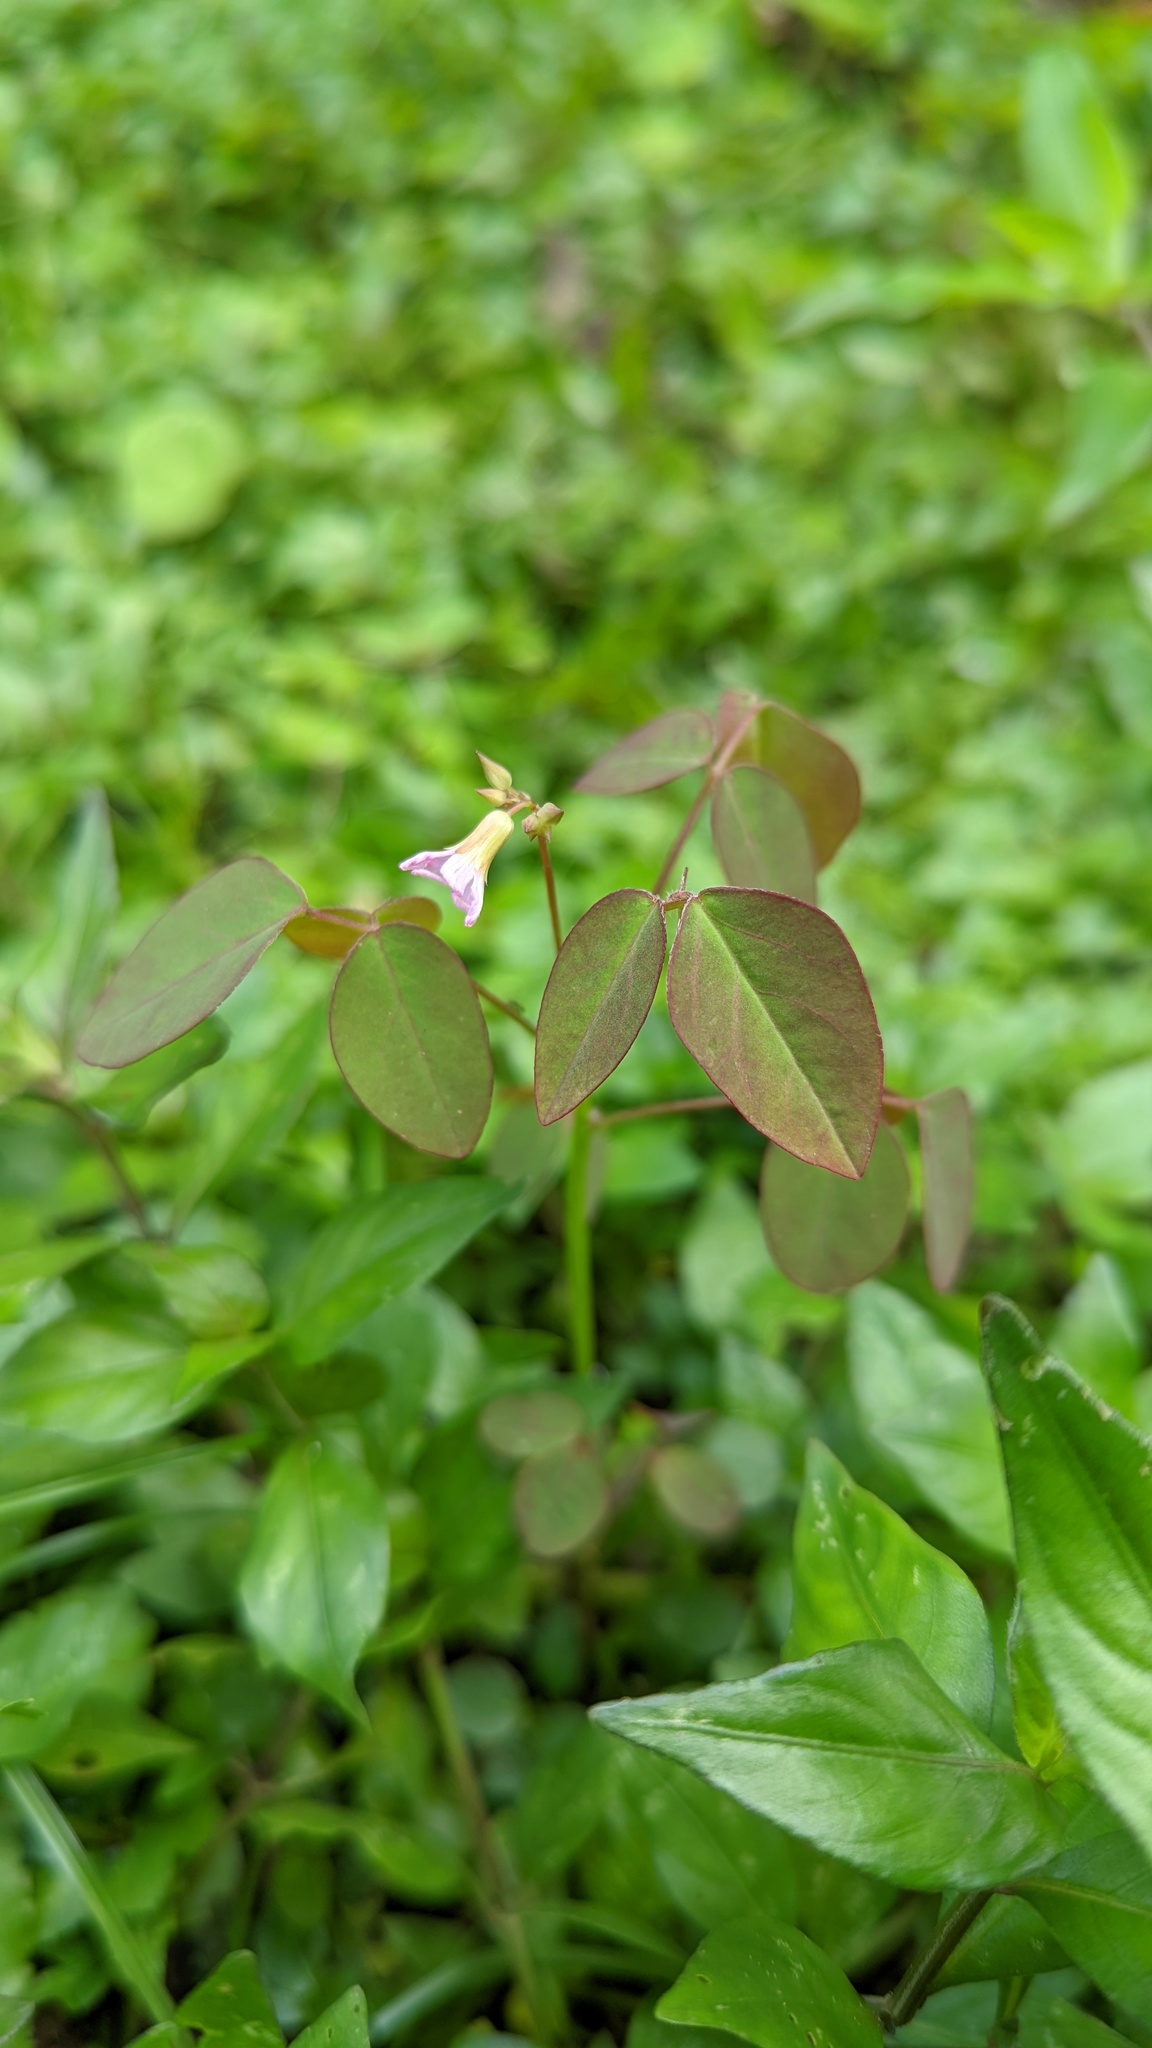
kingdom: Plantae
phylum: Tracheophyta
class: Magnoliopsida
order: Oxalidales
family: Oxalidaceae
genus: Oxalis
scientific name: Oxalis barrelieri
